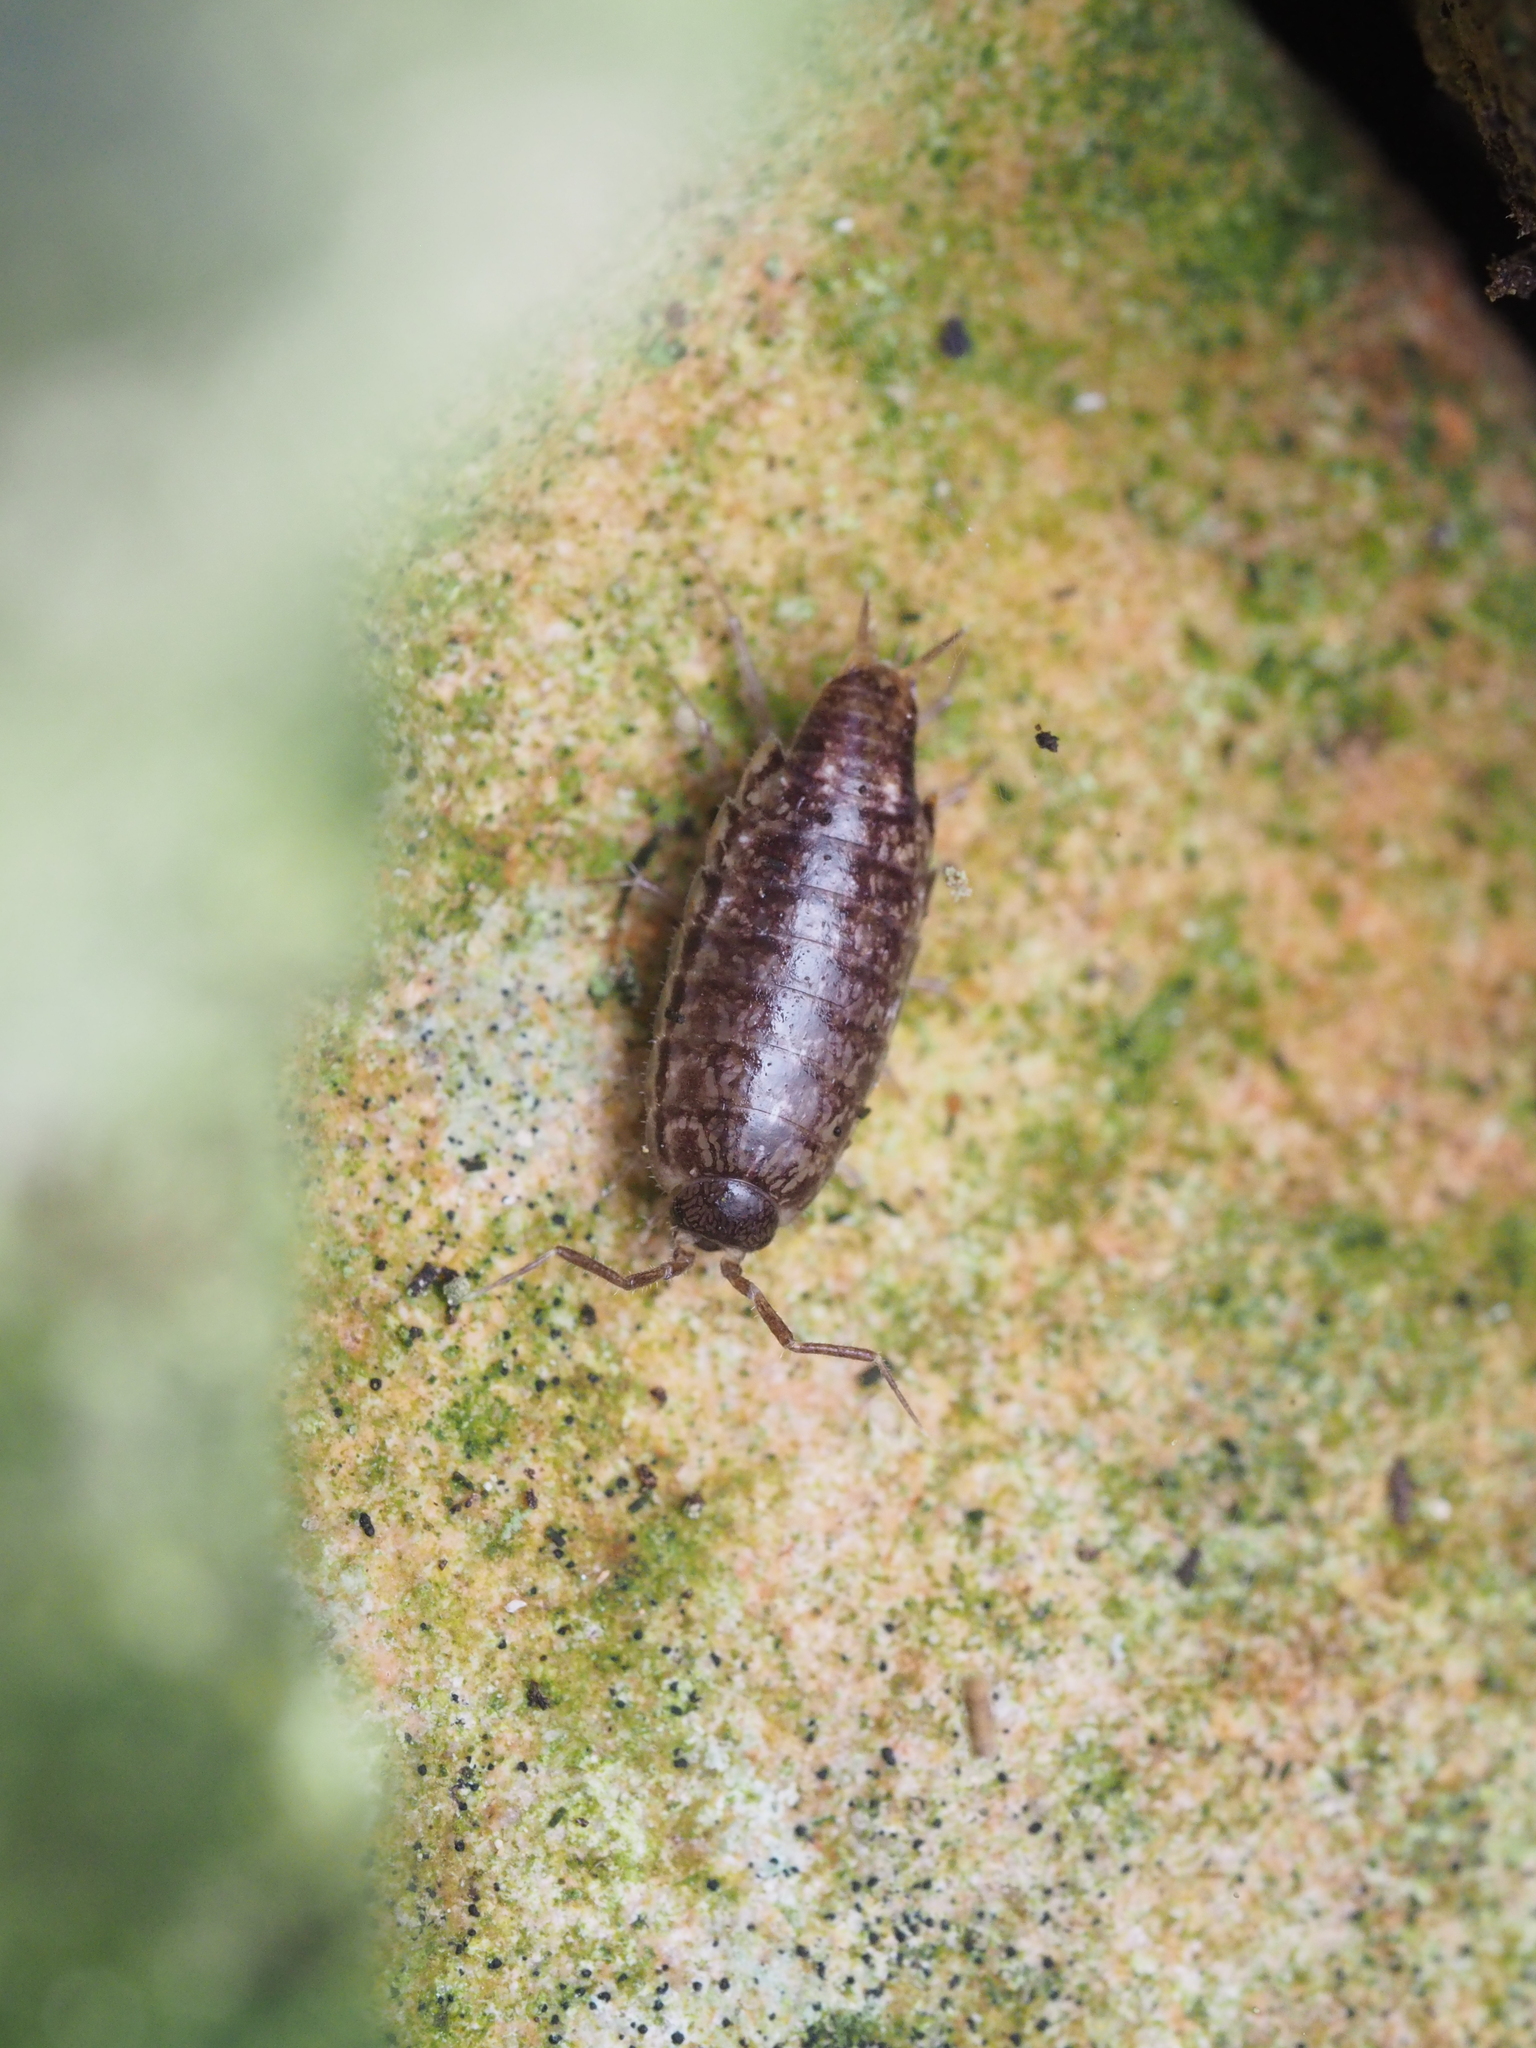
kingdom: Animalia
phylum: Arthropoda
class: Malacostraca
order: Isopoda
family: Philosciidae
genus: Chaetophiloscia
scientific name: Chaetophiloscia elongata
